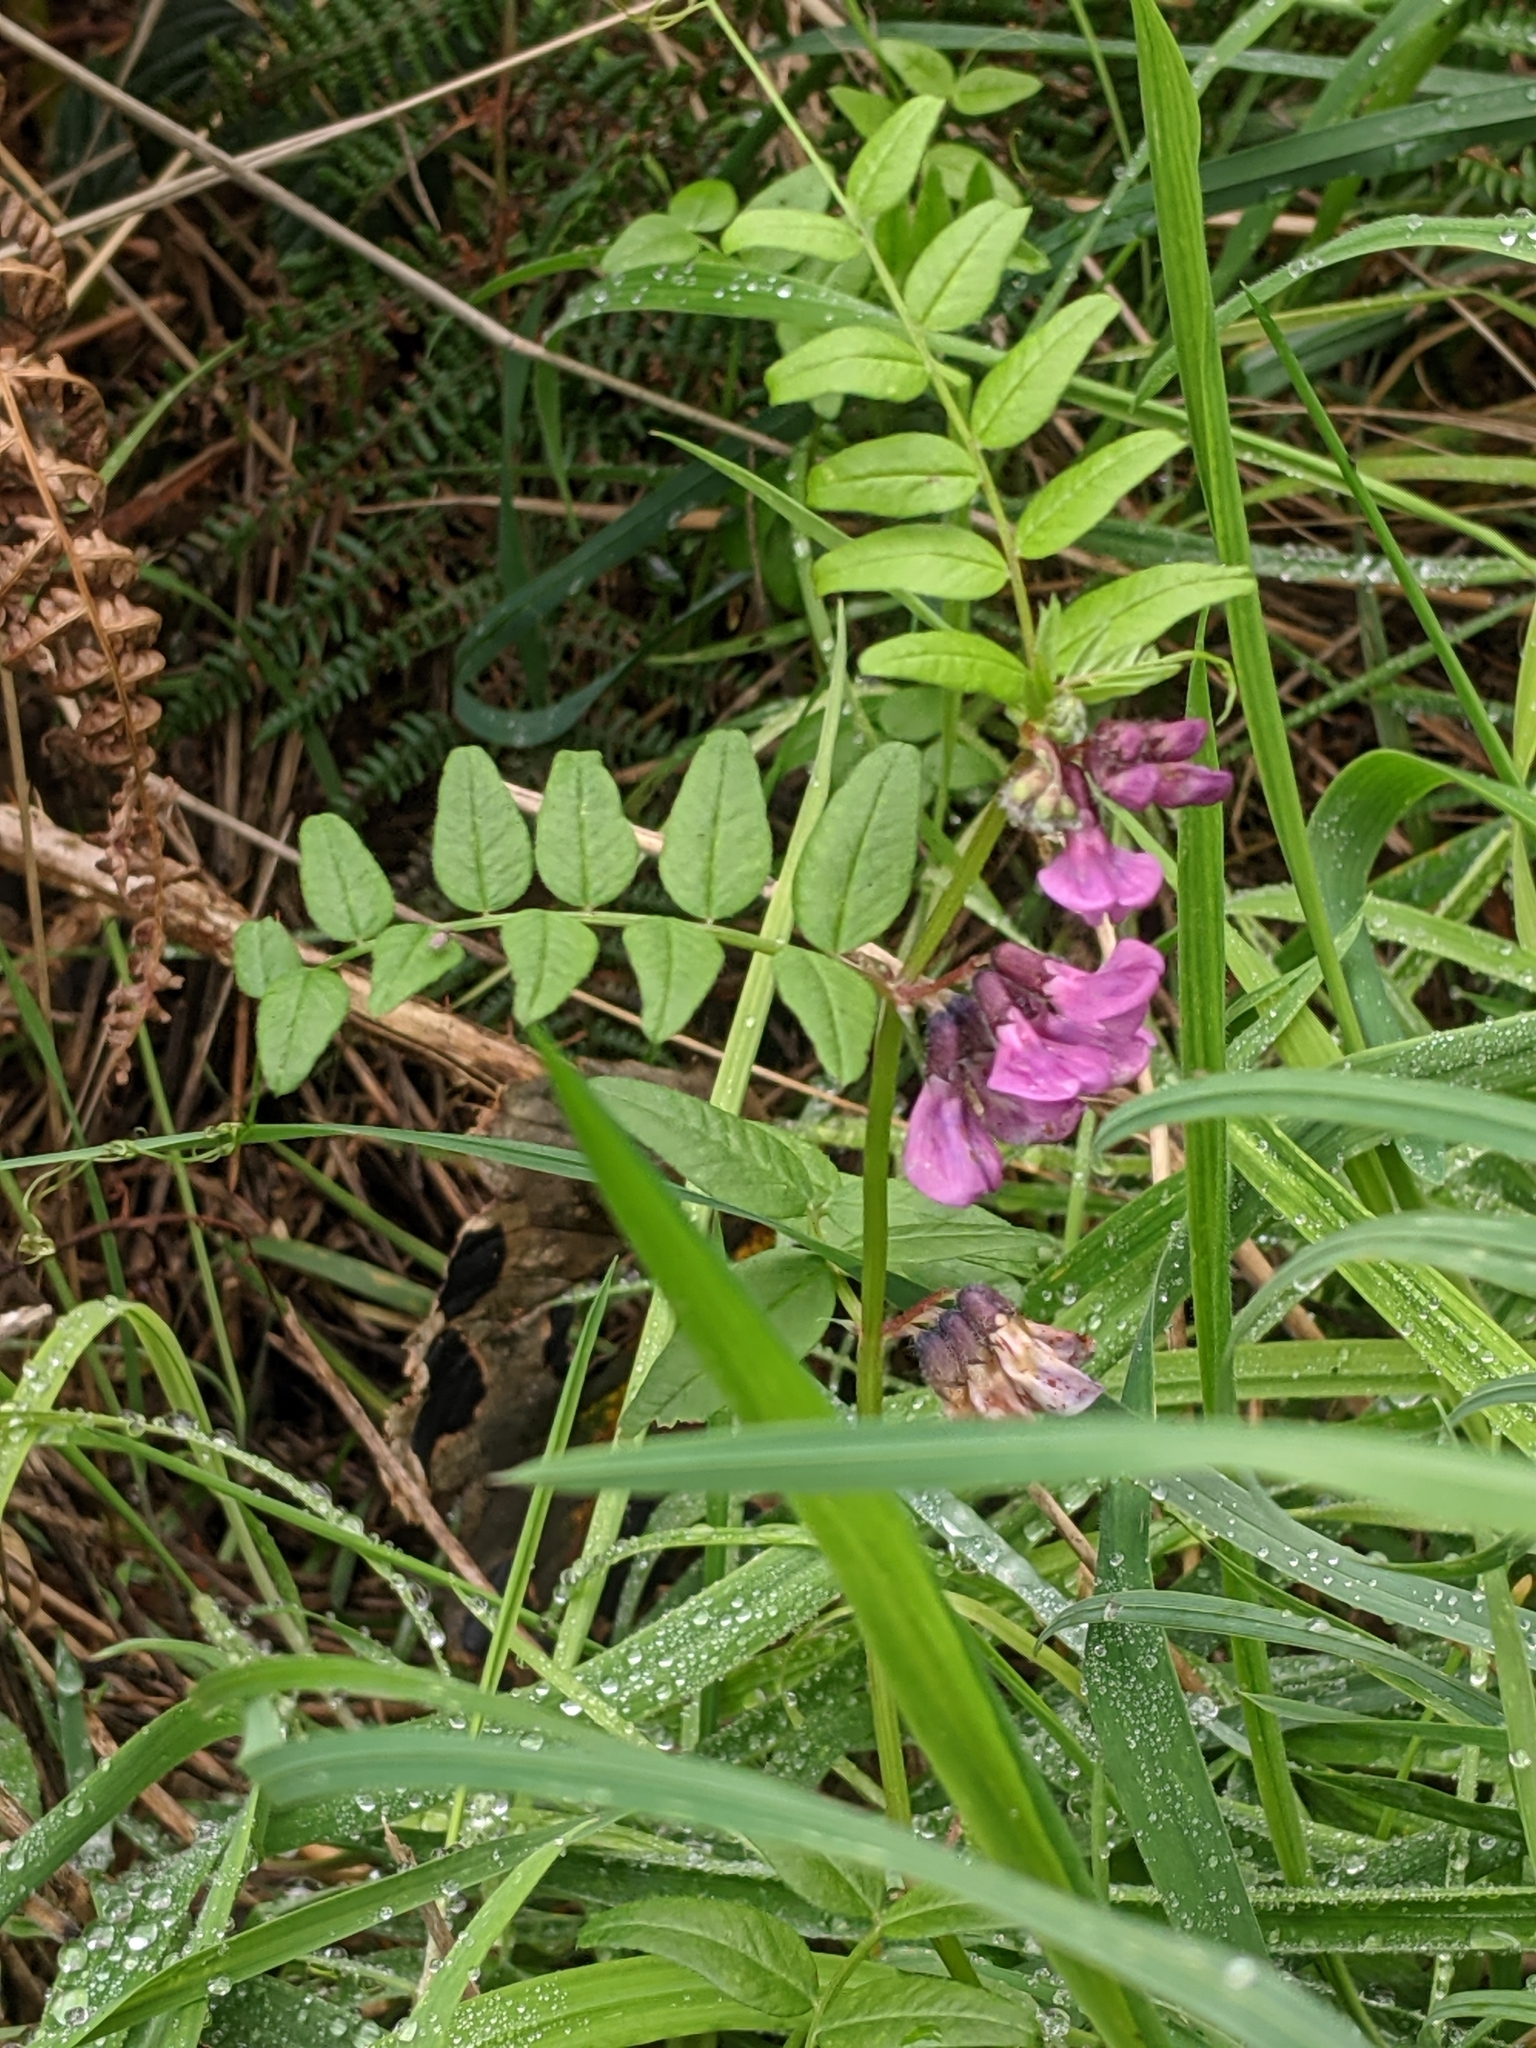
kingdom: Plantae
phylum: Tracheophyta
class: Magnoliopsida
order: Fabales
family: Fabaceae
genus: Vicia
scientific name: Vicia sepium
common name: Bush vetch
